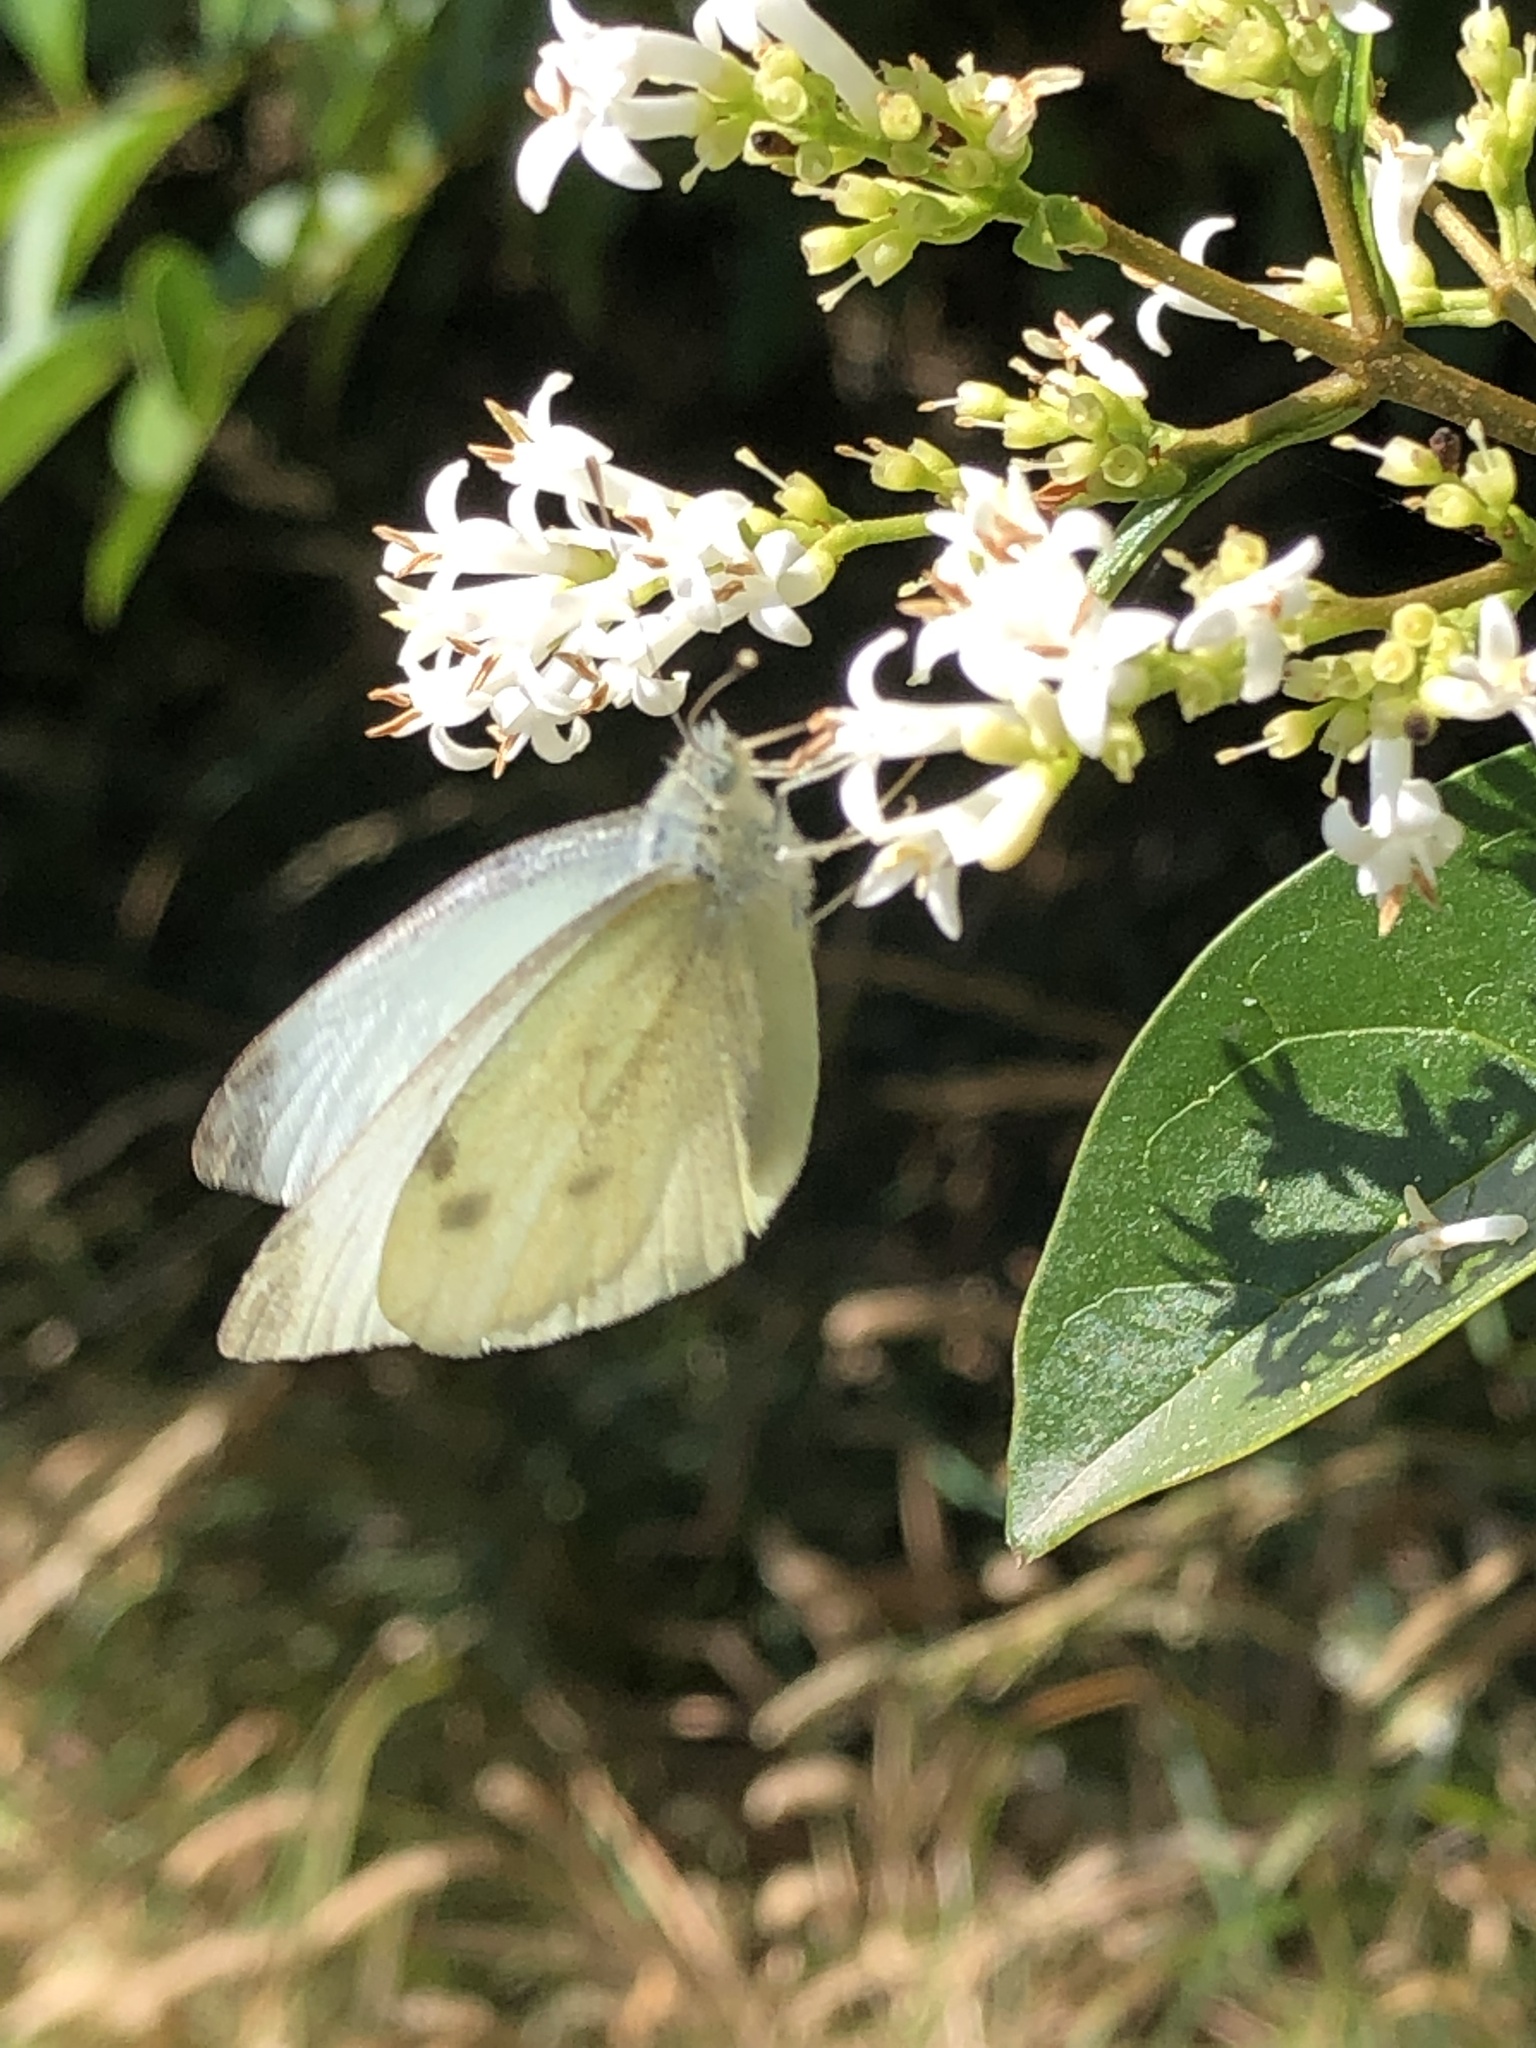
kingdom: Animalia
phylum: Arthropoda
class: Insecta
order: Lepidoptera
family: Pieridae
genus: Pieris
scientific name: Pieris rapae
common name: Small white
